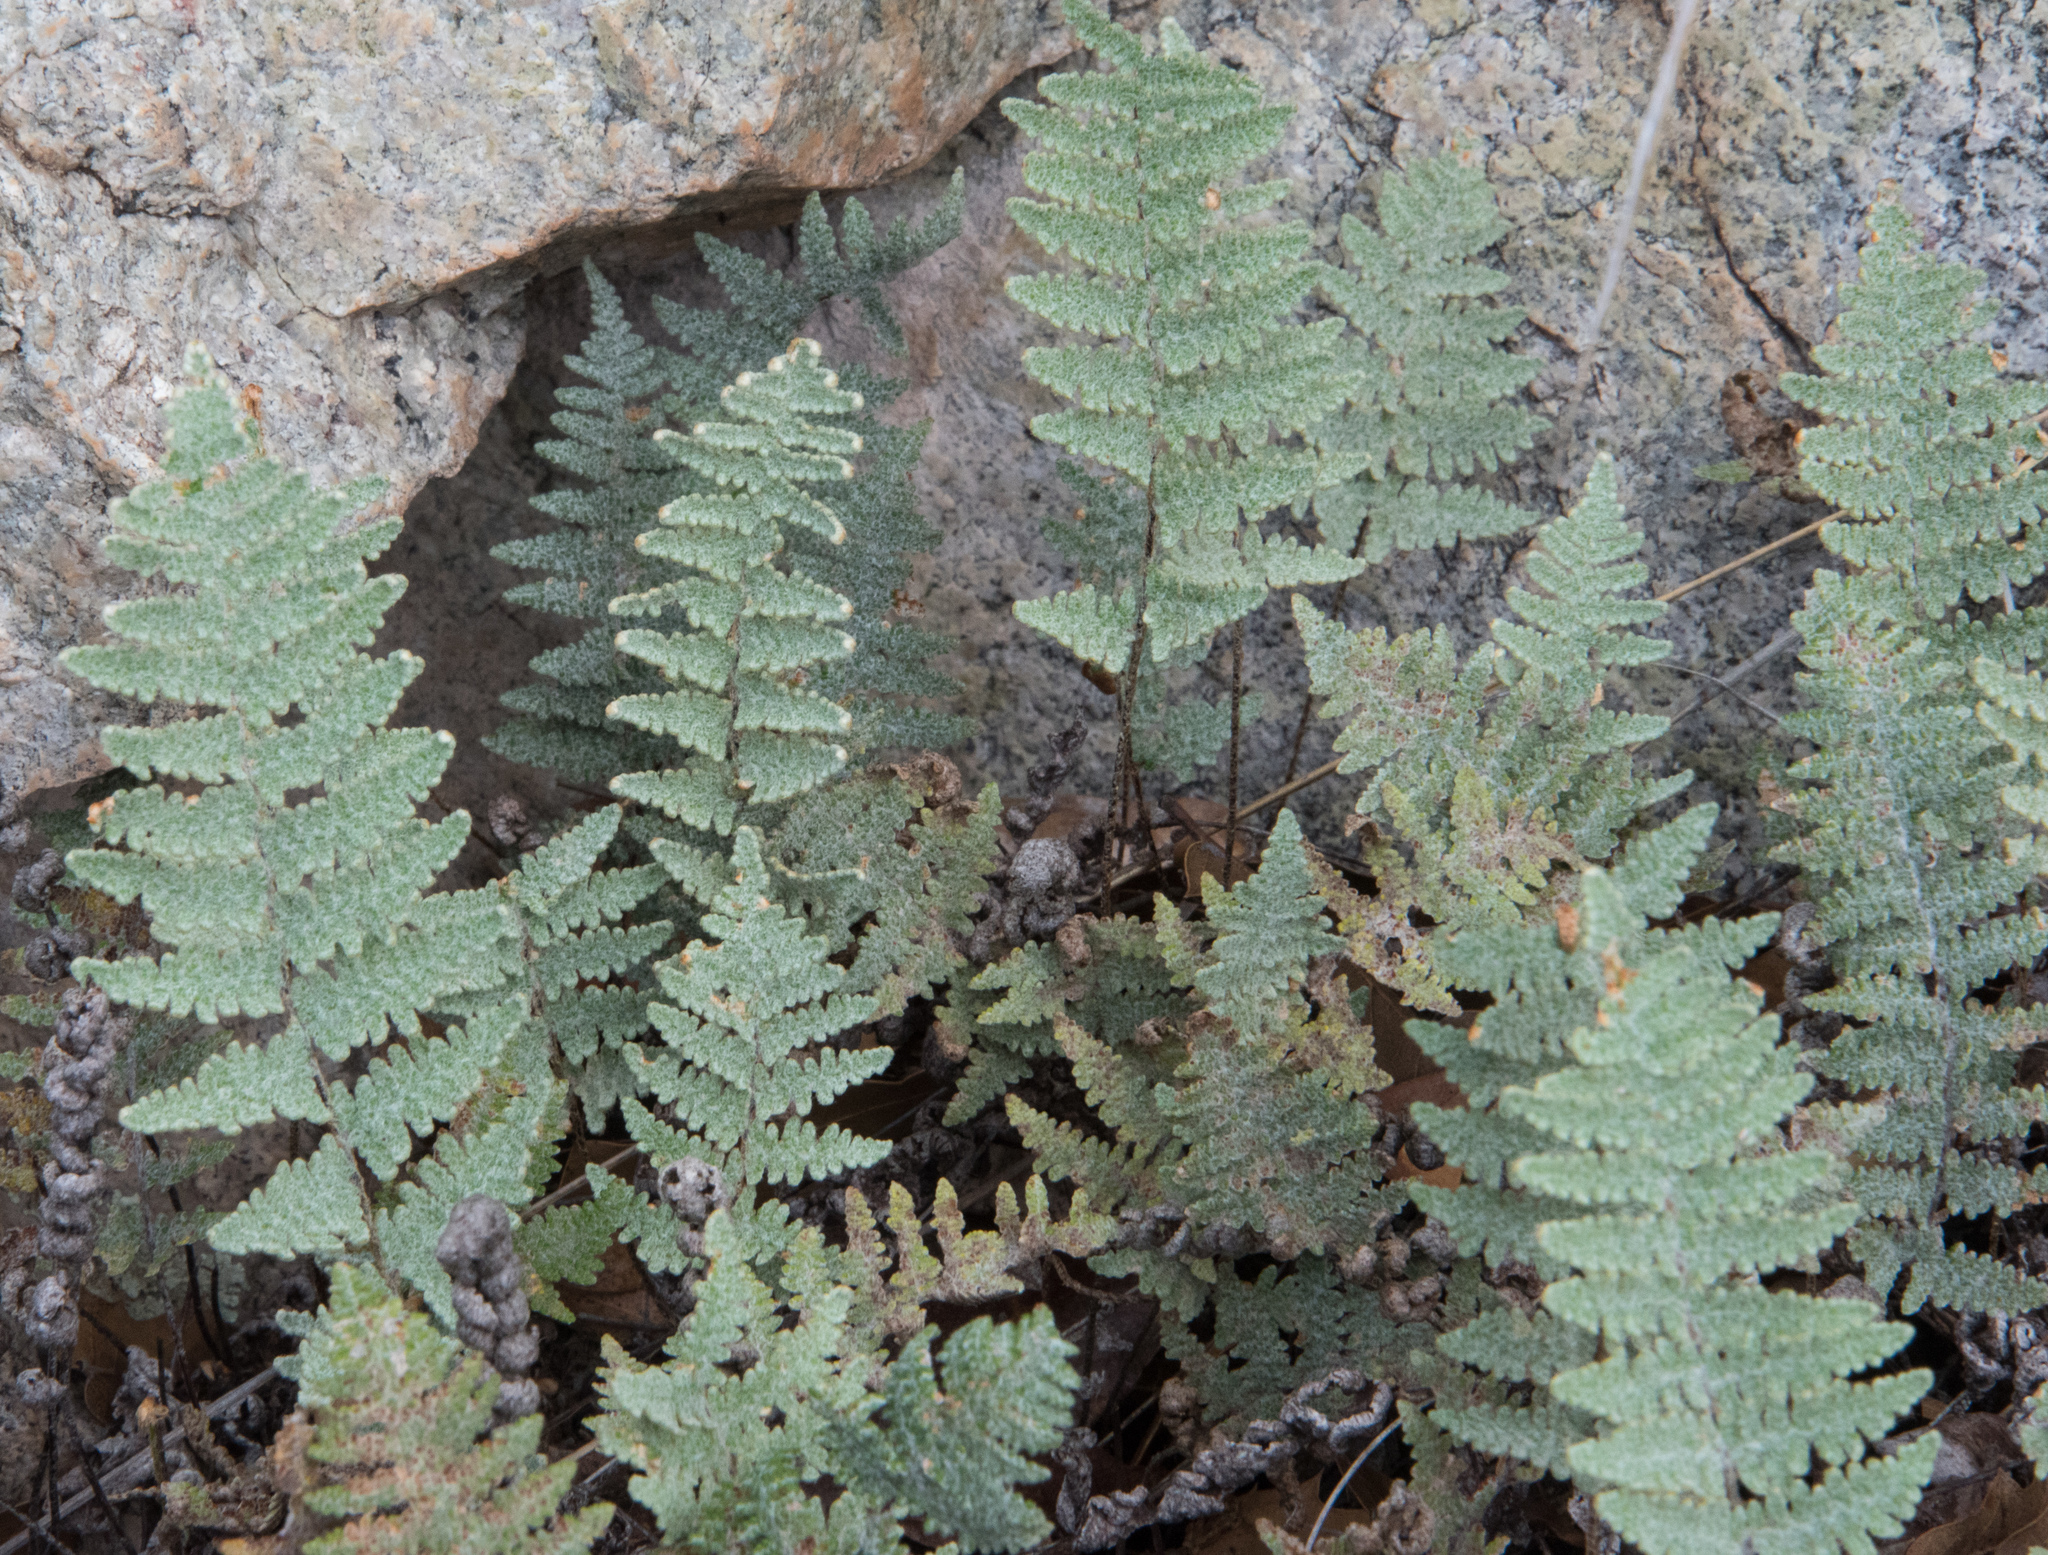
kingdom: Plantae
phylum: Tracheophyta
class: Polypodiopsida
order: Polypodiales
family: Pteridaceae
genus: Myriopteris
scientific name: Myriopteris lindheimeri
